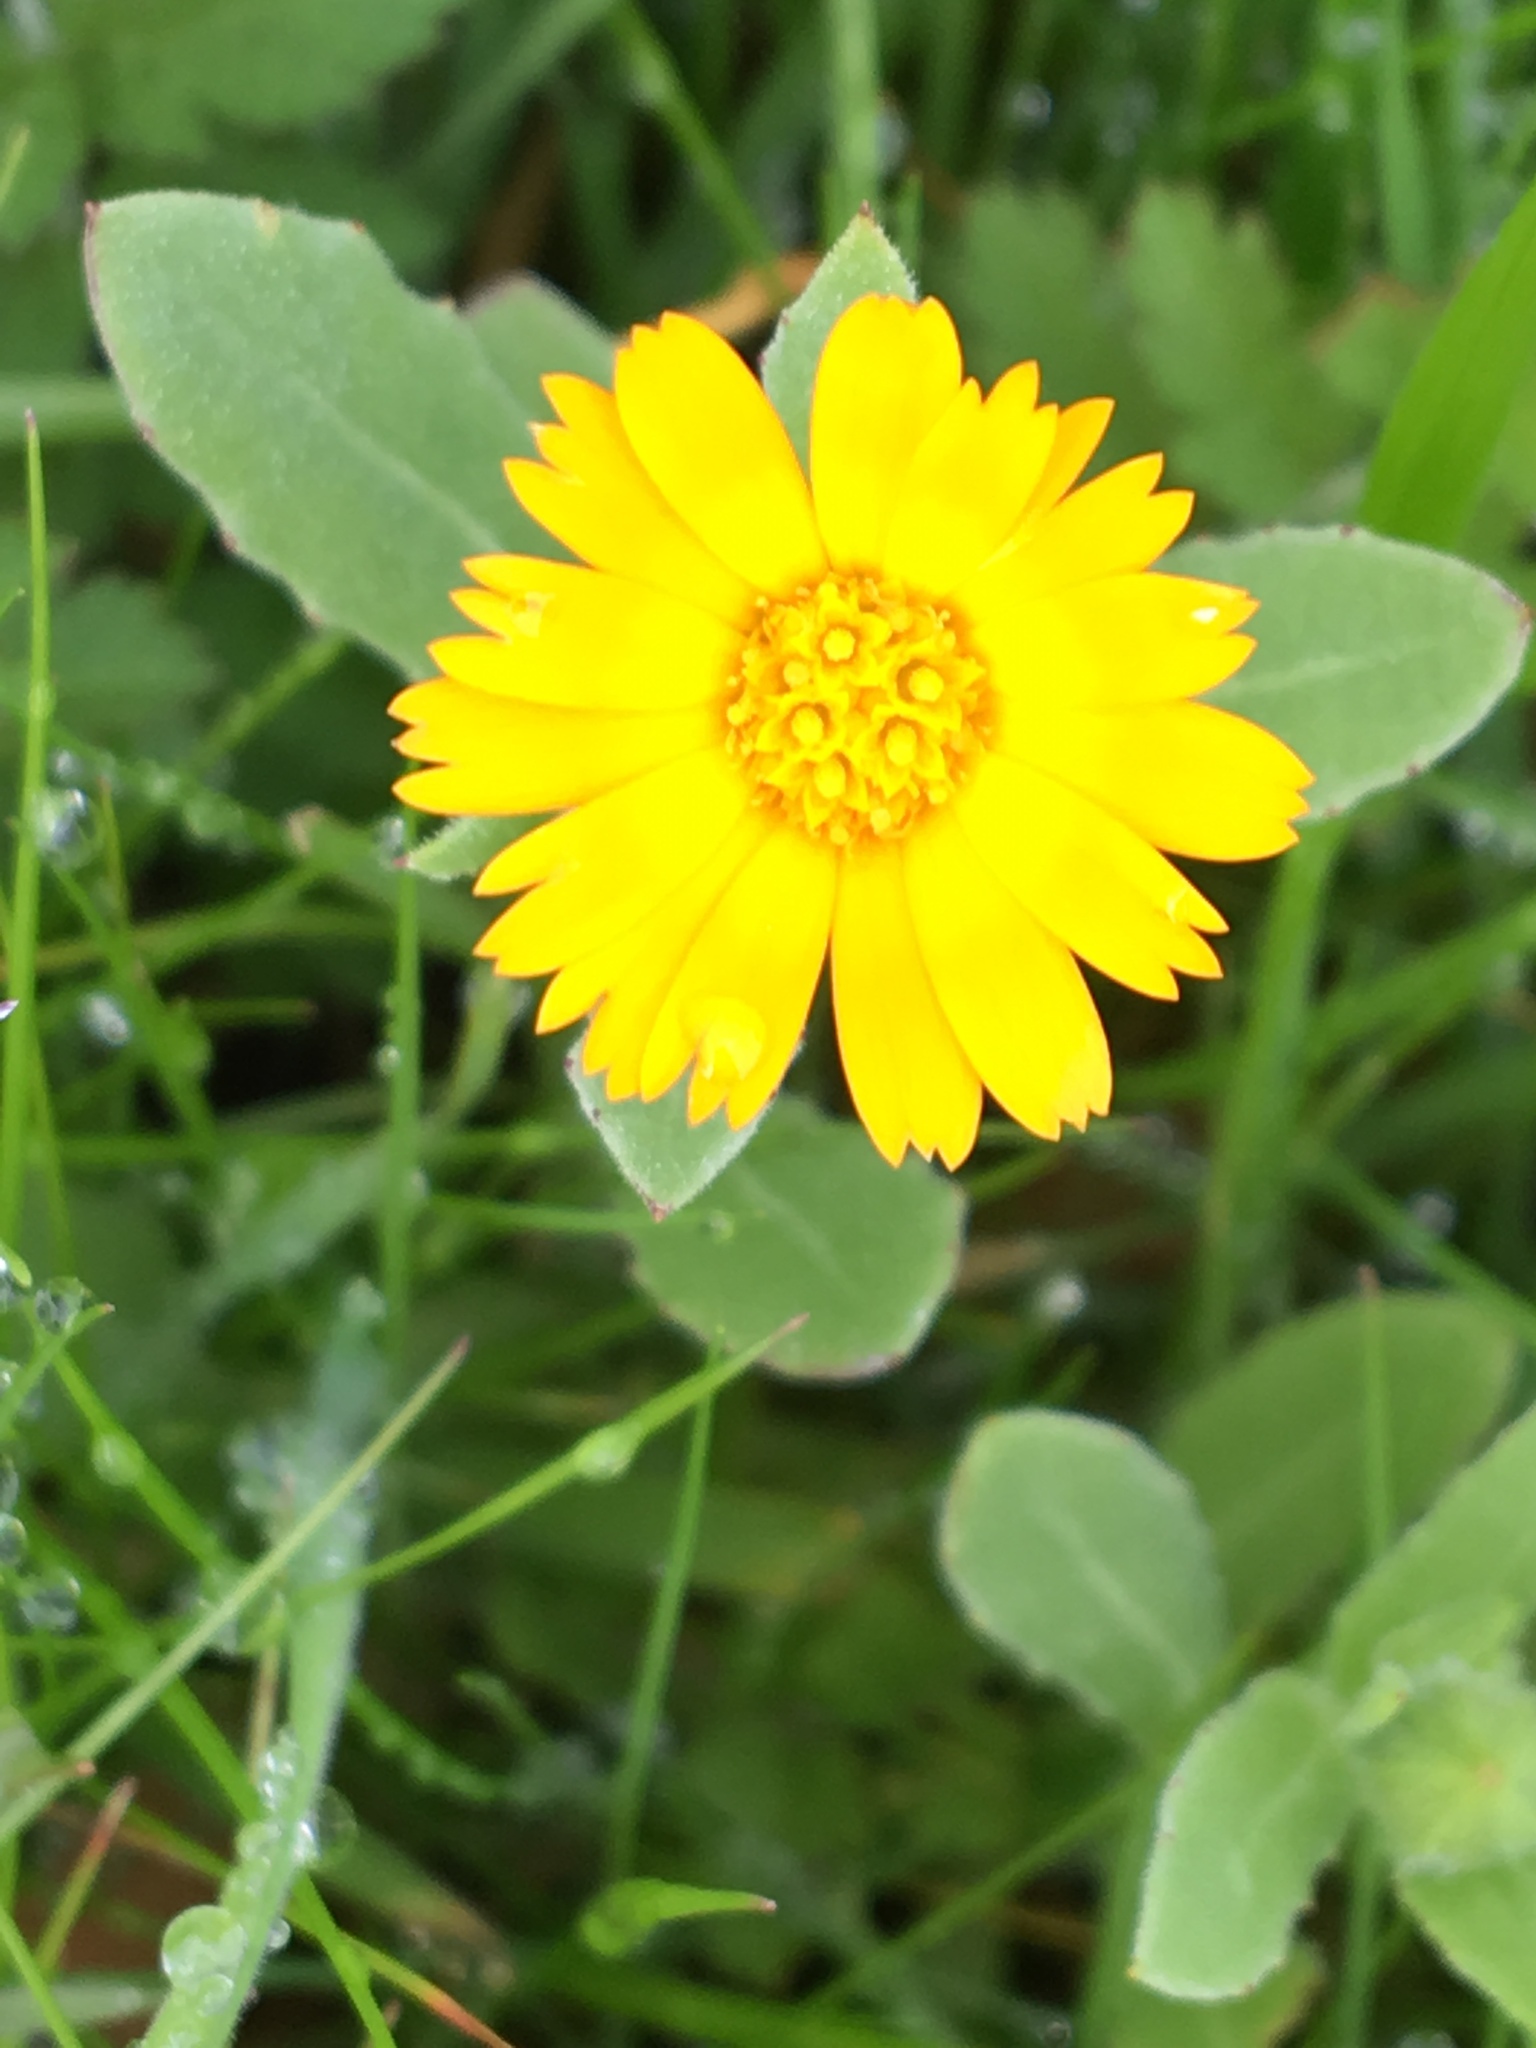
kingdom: Plantae
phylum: Tracheophyta
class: Magnoliopsida
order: Asterales
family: Asteraceae
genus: Calendula
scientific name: Calendula arvensis
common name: Field marigold
